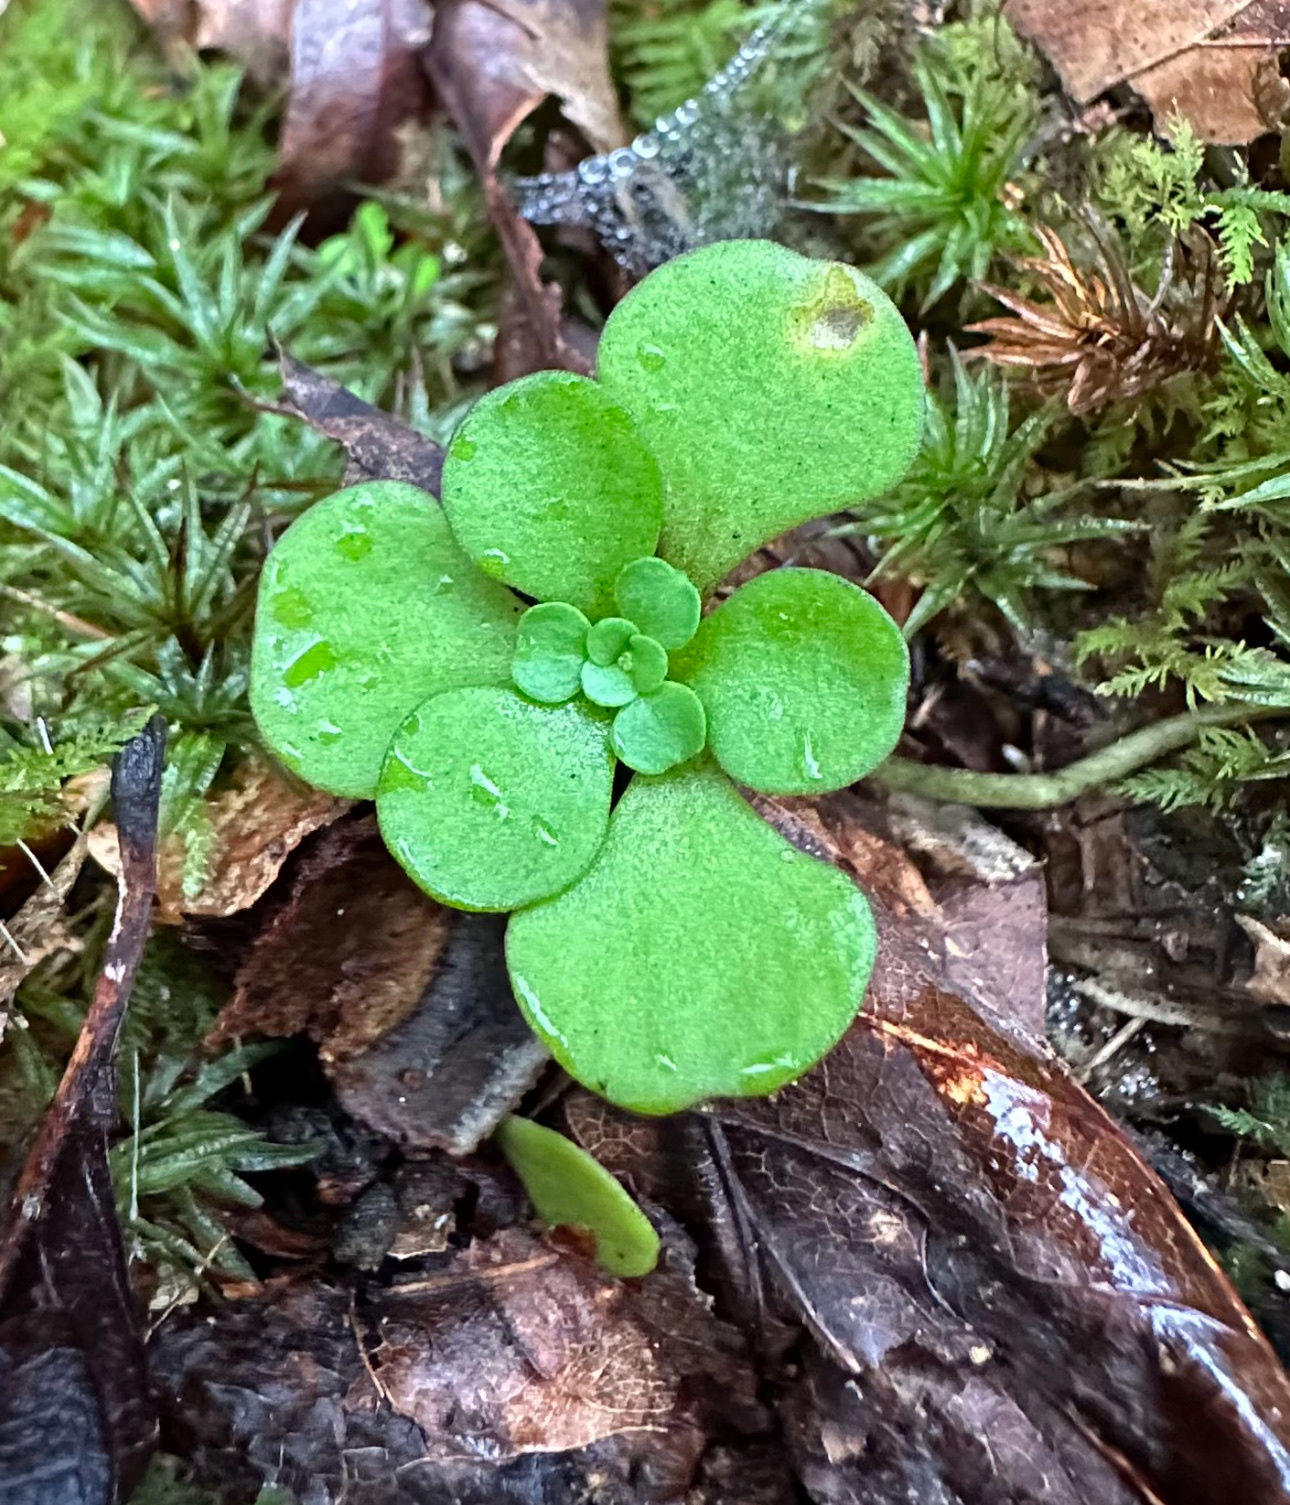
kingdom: Plantae
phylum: Tracheophyta
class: Magnoliopsida
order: Saxifragales
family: Crassulaceae
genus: Sedum
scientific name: Sedum ternatum
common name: Wild stonecrop
